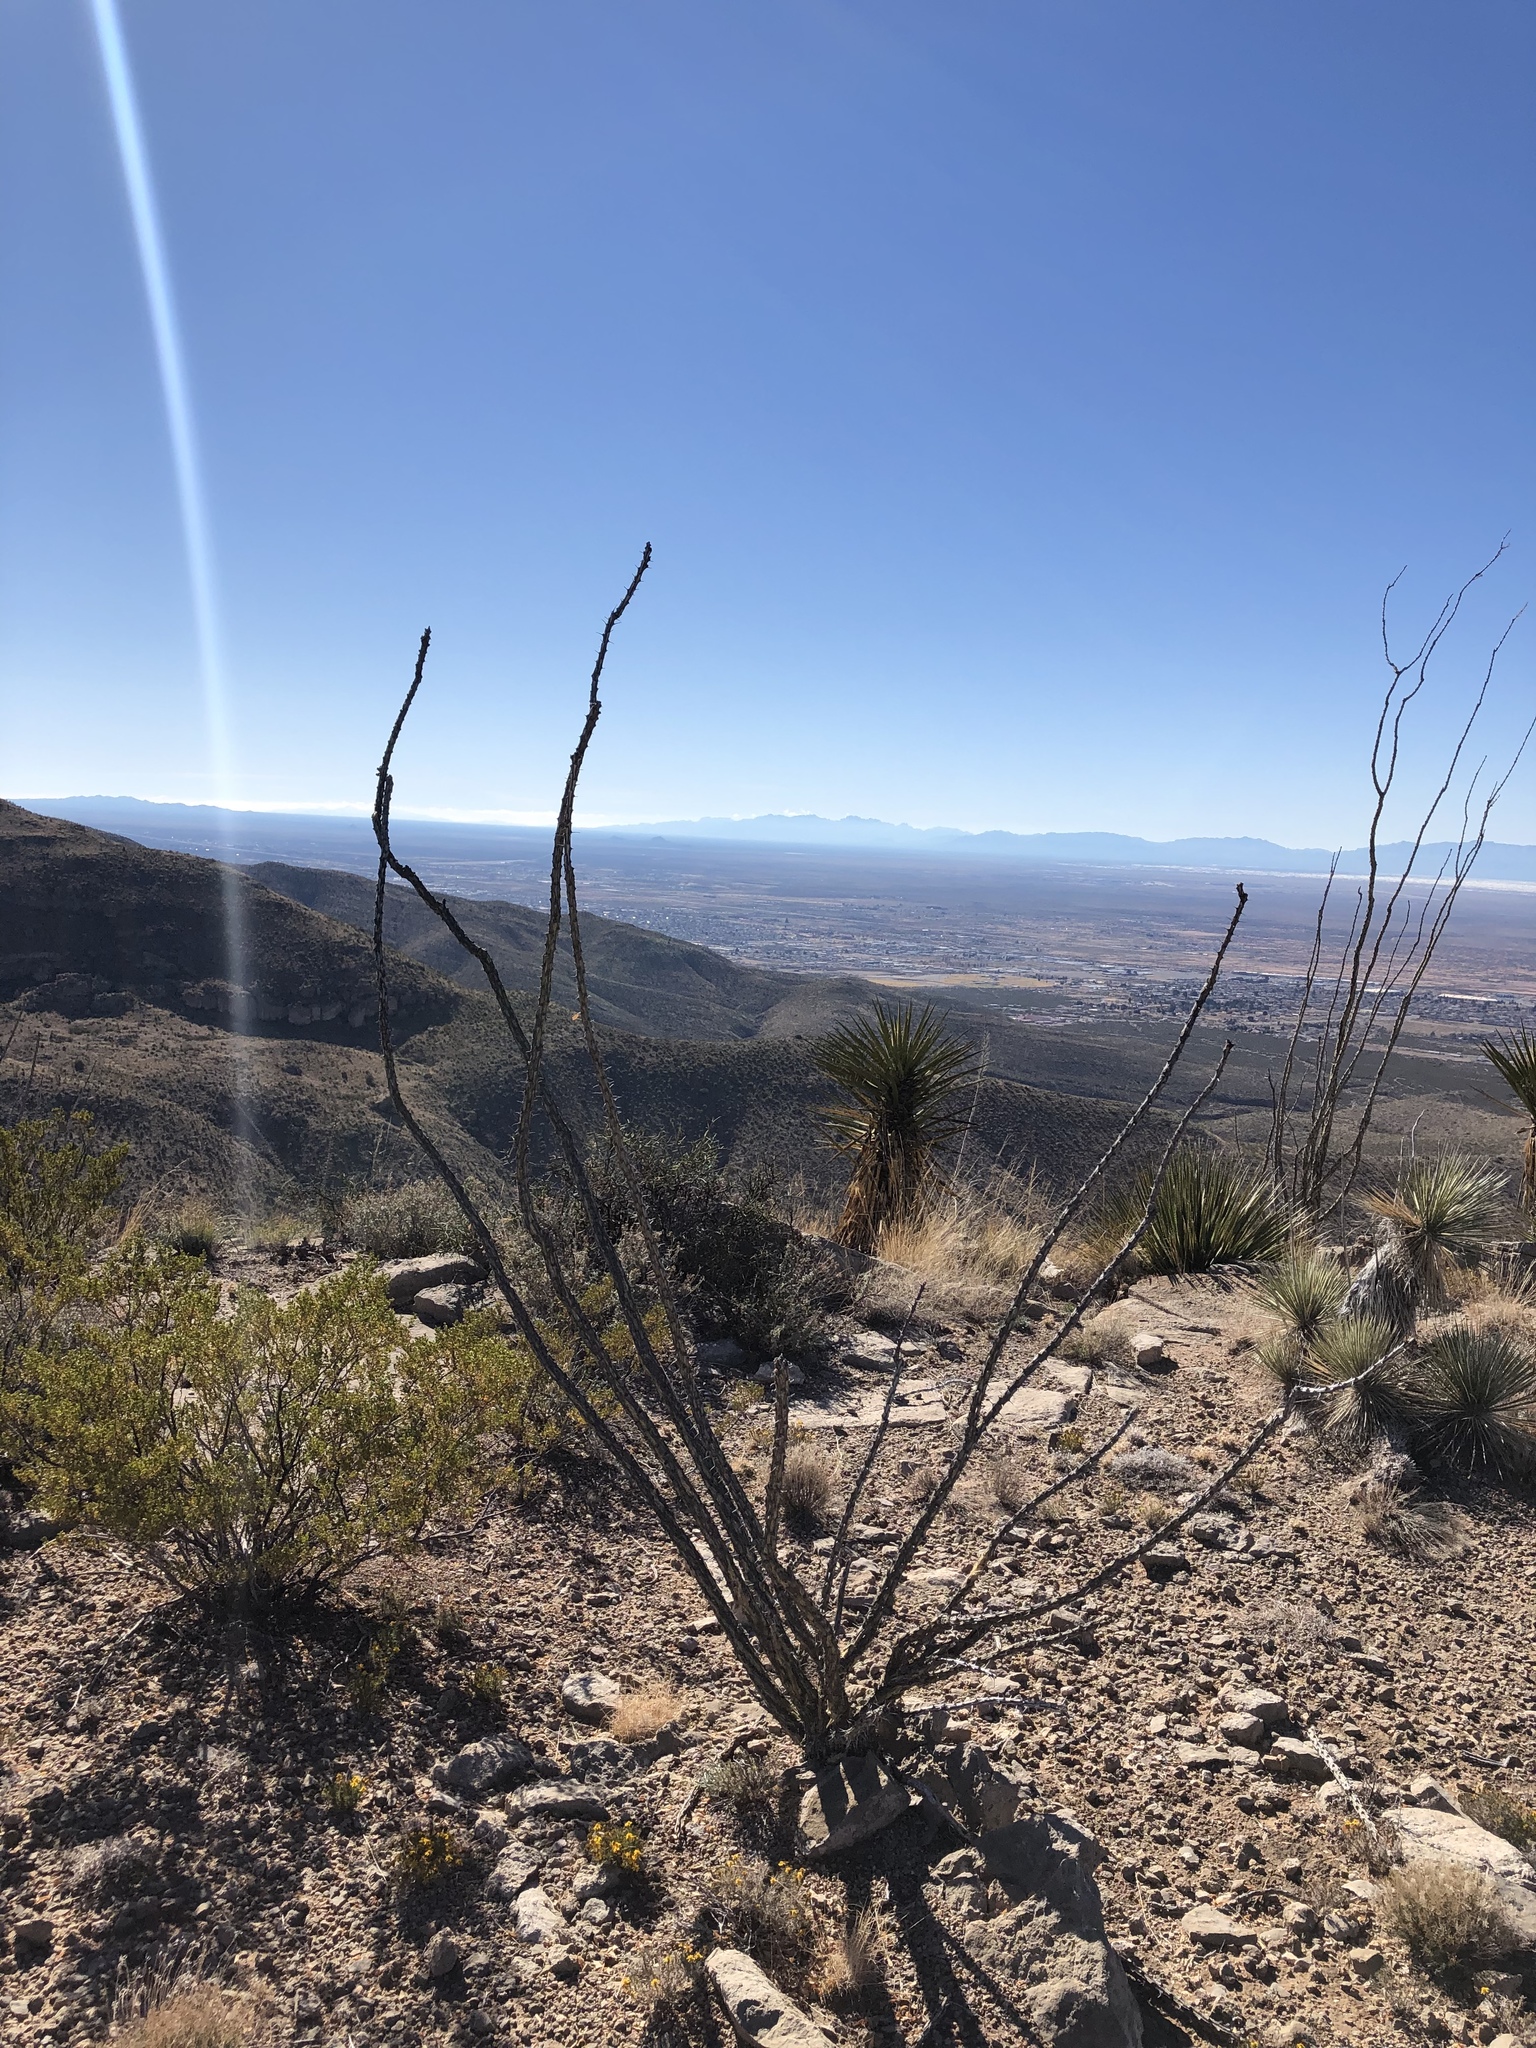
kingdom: Plantae
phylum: Tracheophyta
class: Magnoliopsida
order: Ericales
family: Fouquieriaceae
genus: Fouquieria
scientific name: Fouquieria splendens
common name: Vine-cactus
